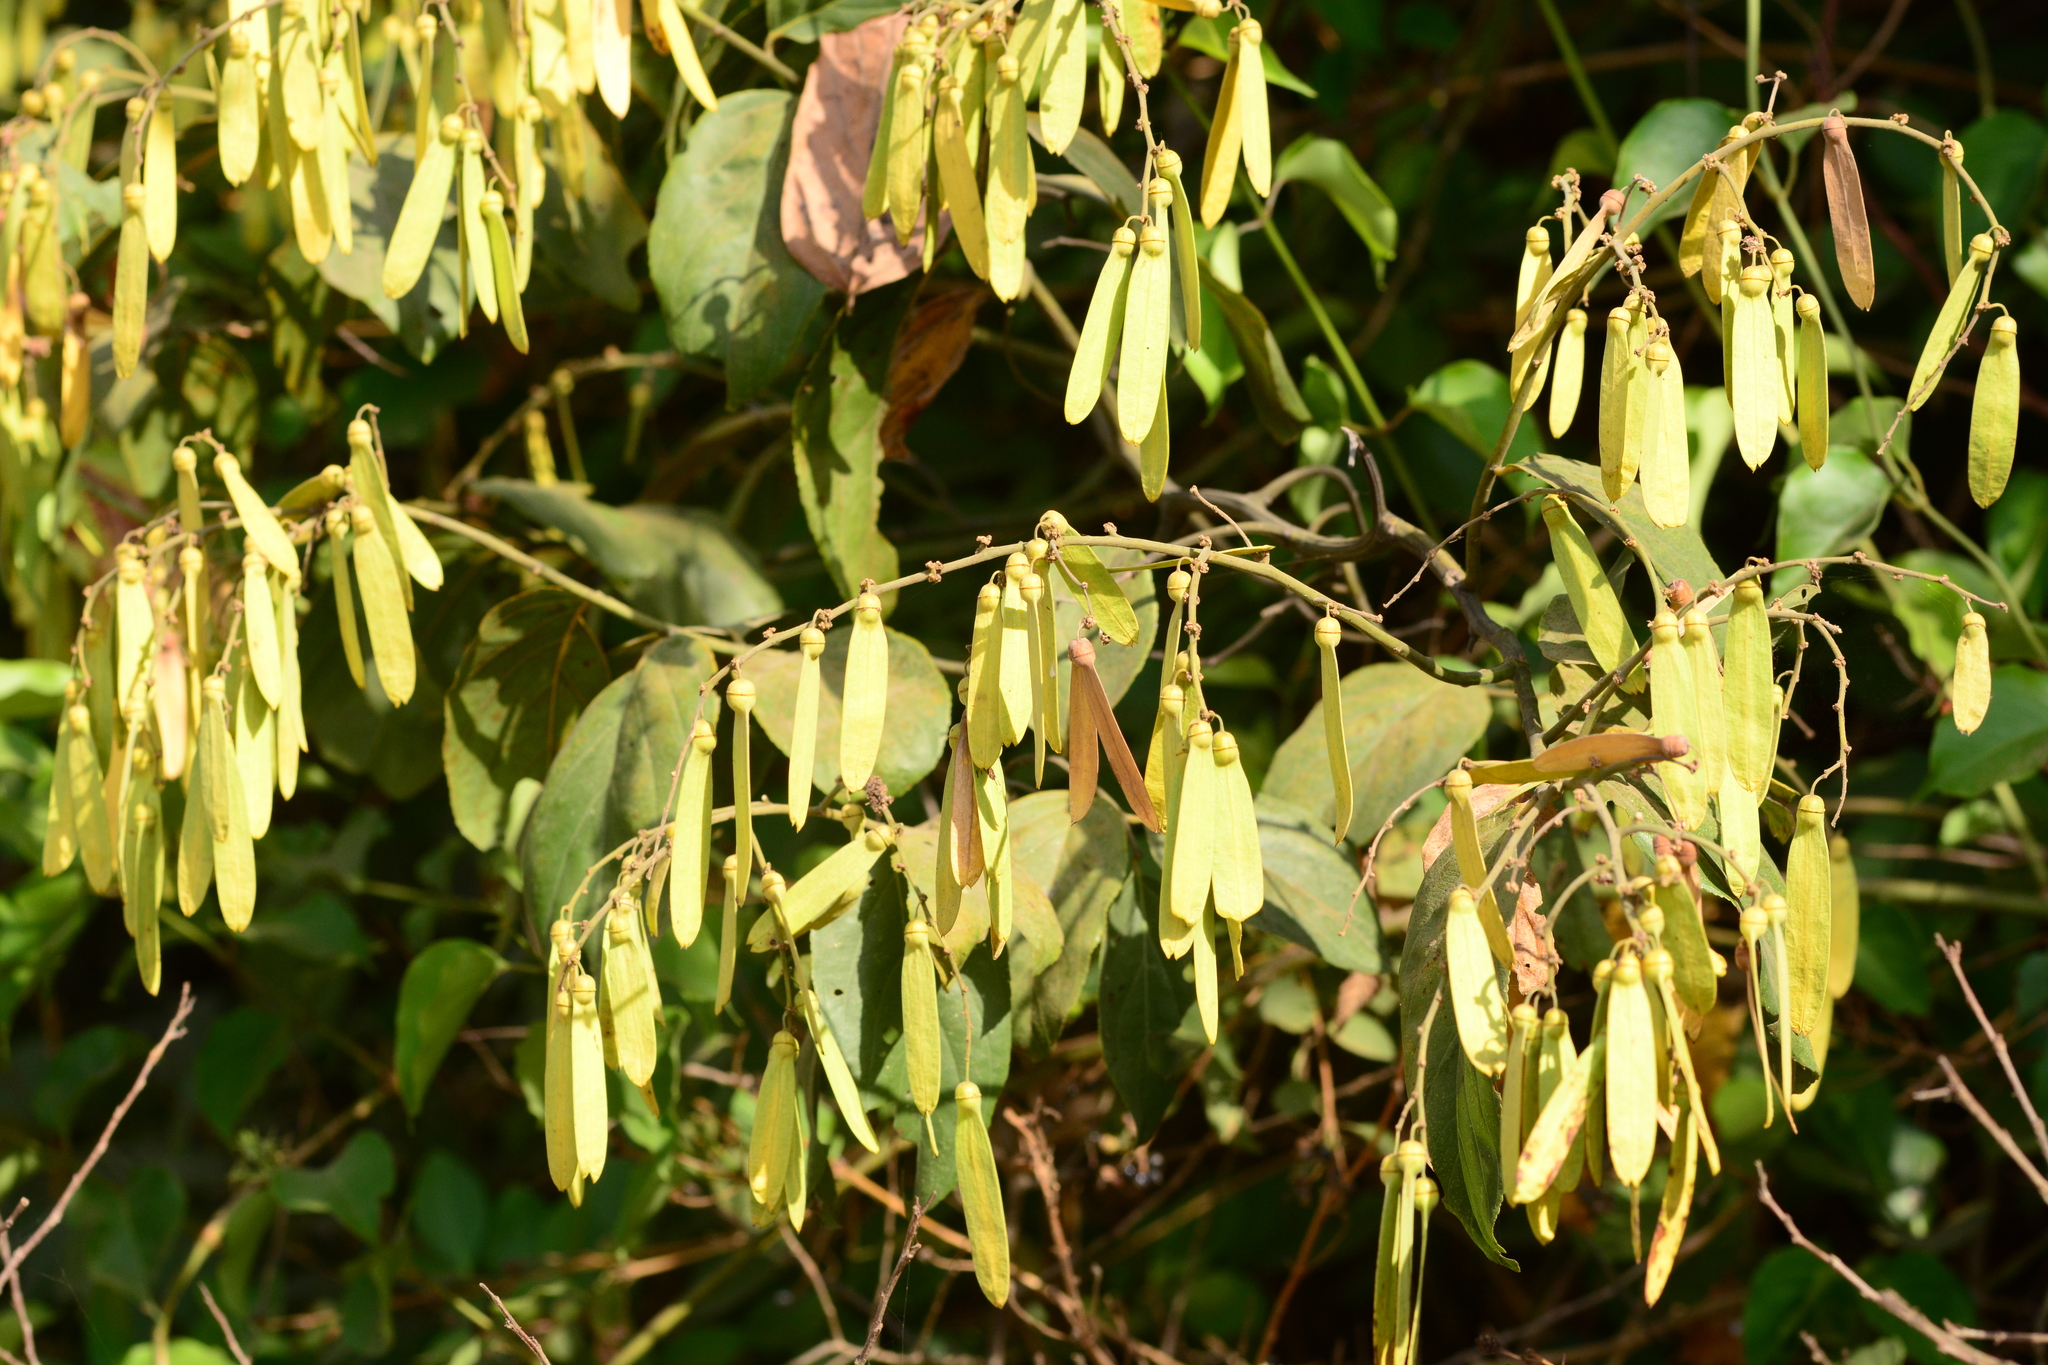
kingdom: Plantae
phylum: Tracheophyta
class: Magnoliopsida
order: Rosales
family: Rhamnaceae
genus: Ventilago
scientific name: Ventilago denticulata
